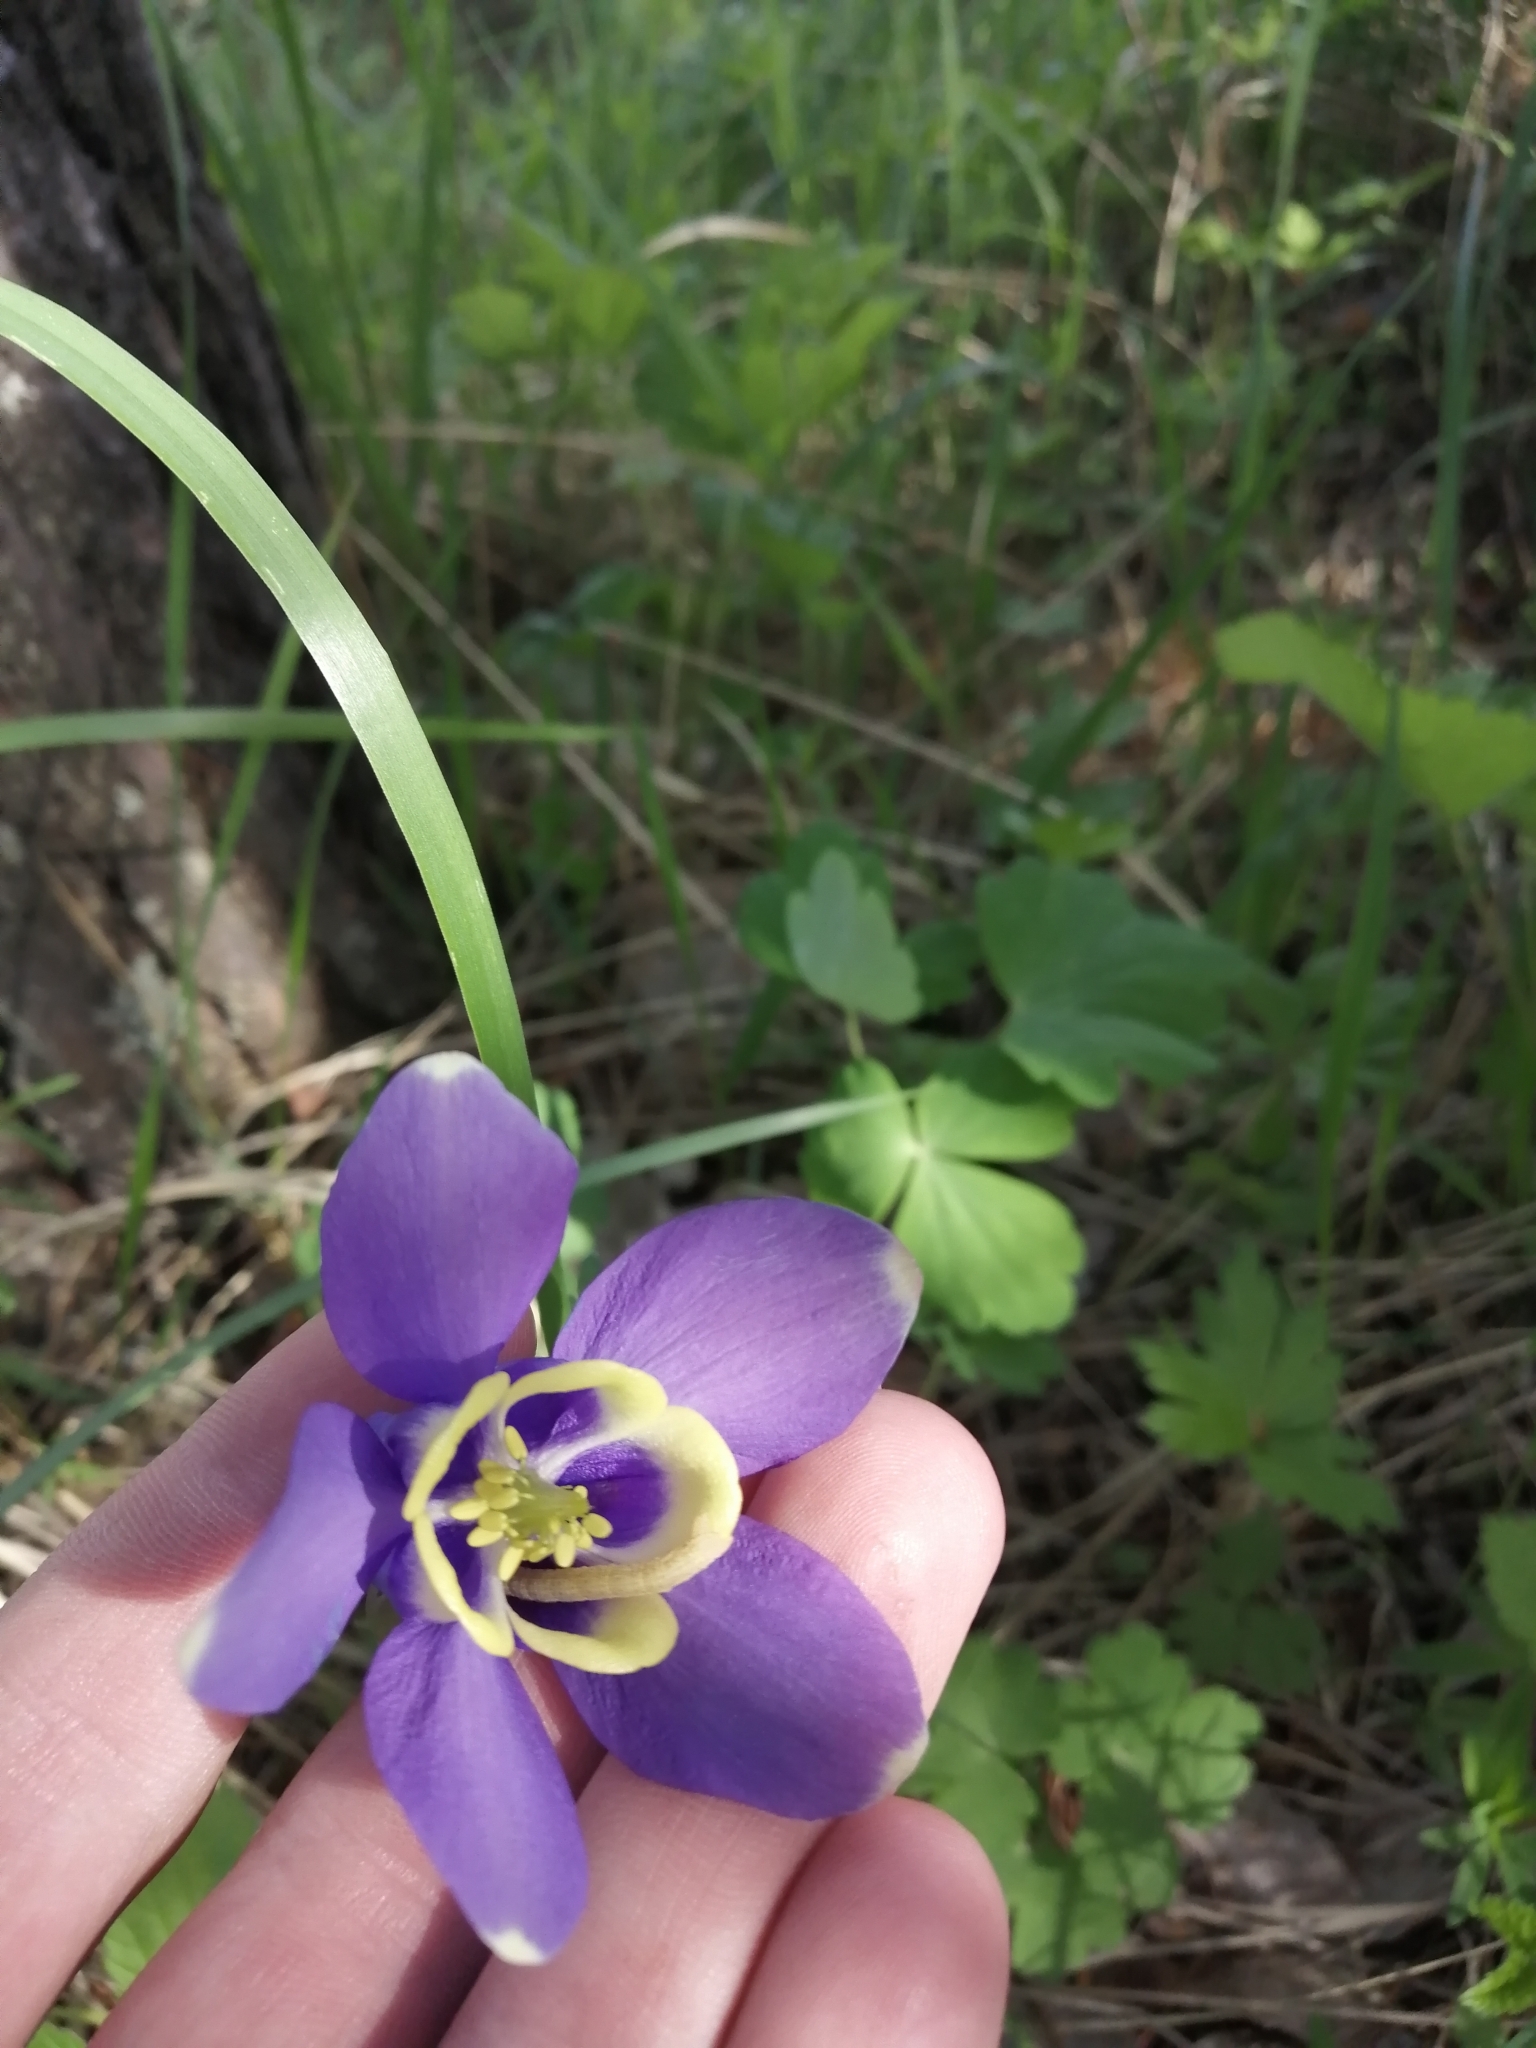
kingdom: Plantae
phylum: Tracheophyta
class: Magnoliopsida
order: Ranunculales
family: Ranunculaceae
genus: Aquilegia
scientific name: Aquilegia sibirica
